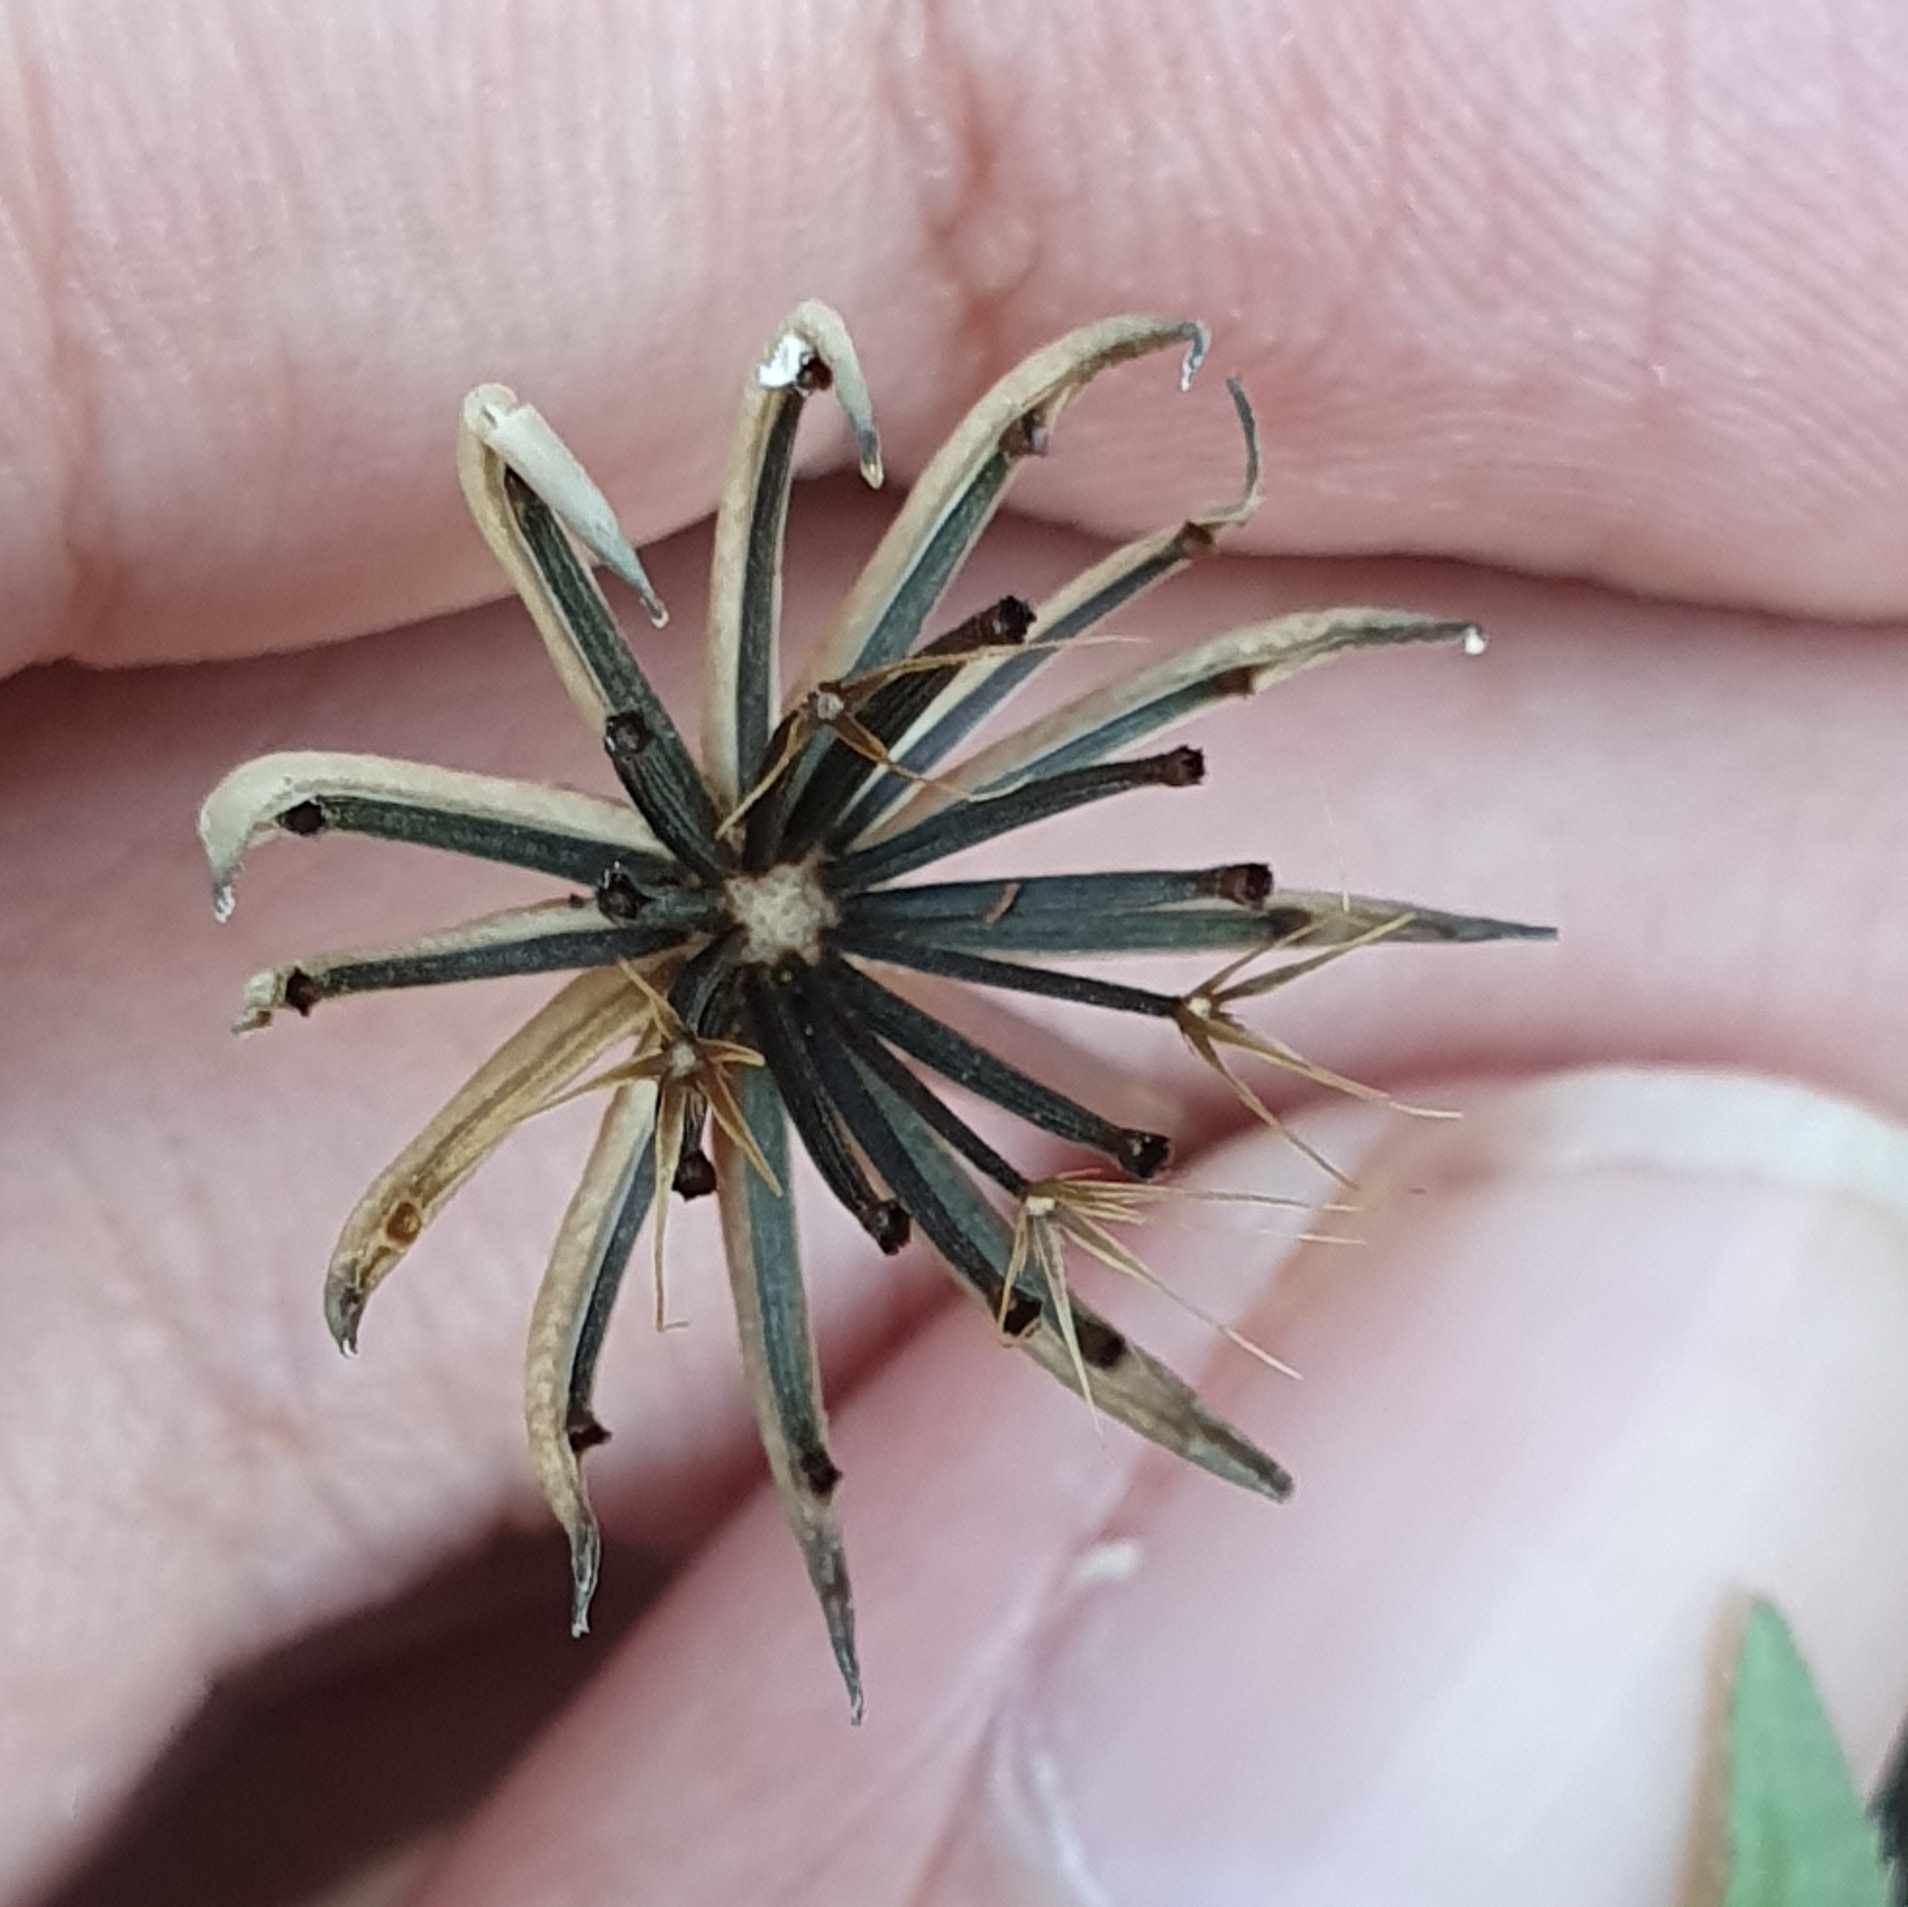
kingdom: Plantae
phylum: Tracheophyta
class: Magnoliopsida
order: Asterales
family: Asteraceae
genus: Hedypnois
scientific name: Hedypnois rhagadioloides
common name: Cretan weed
